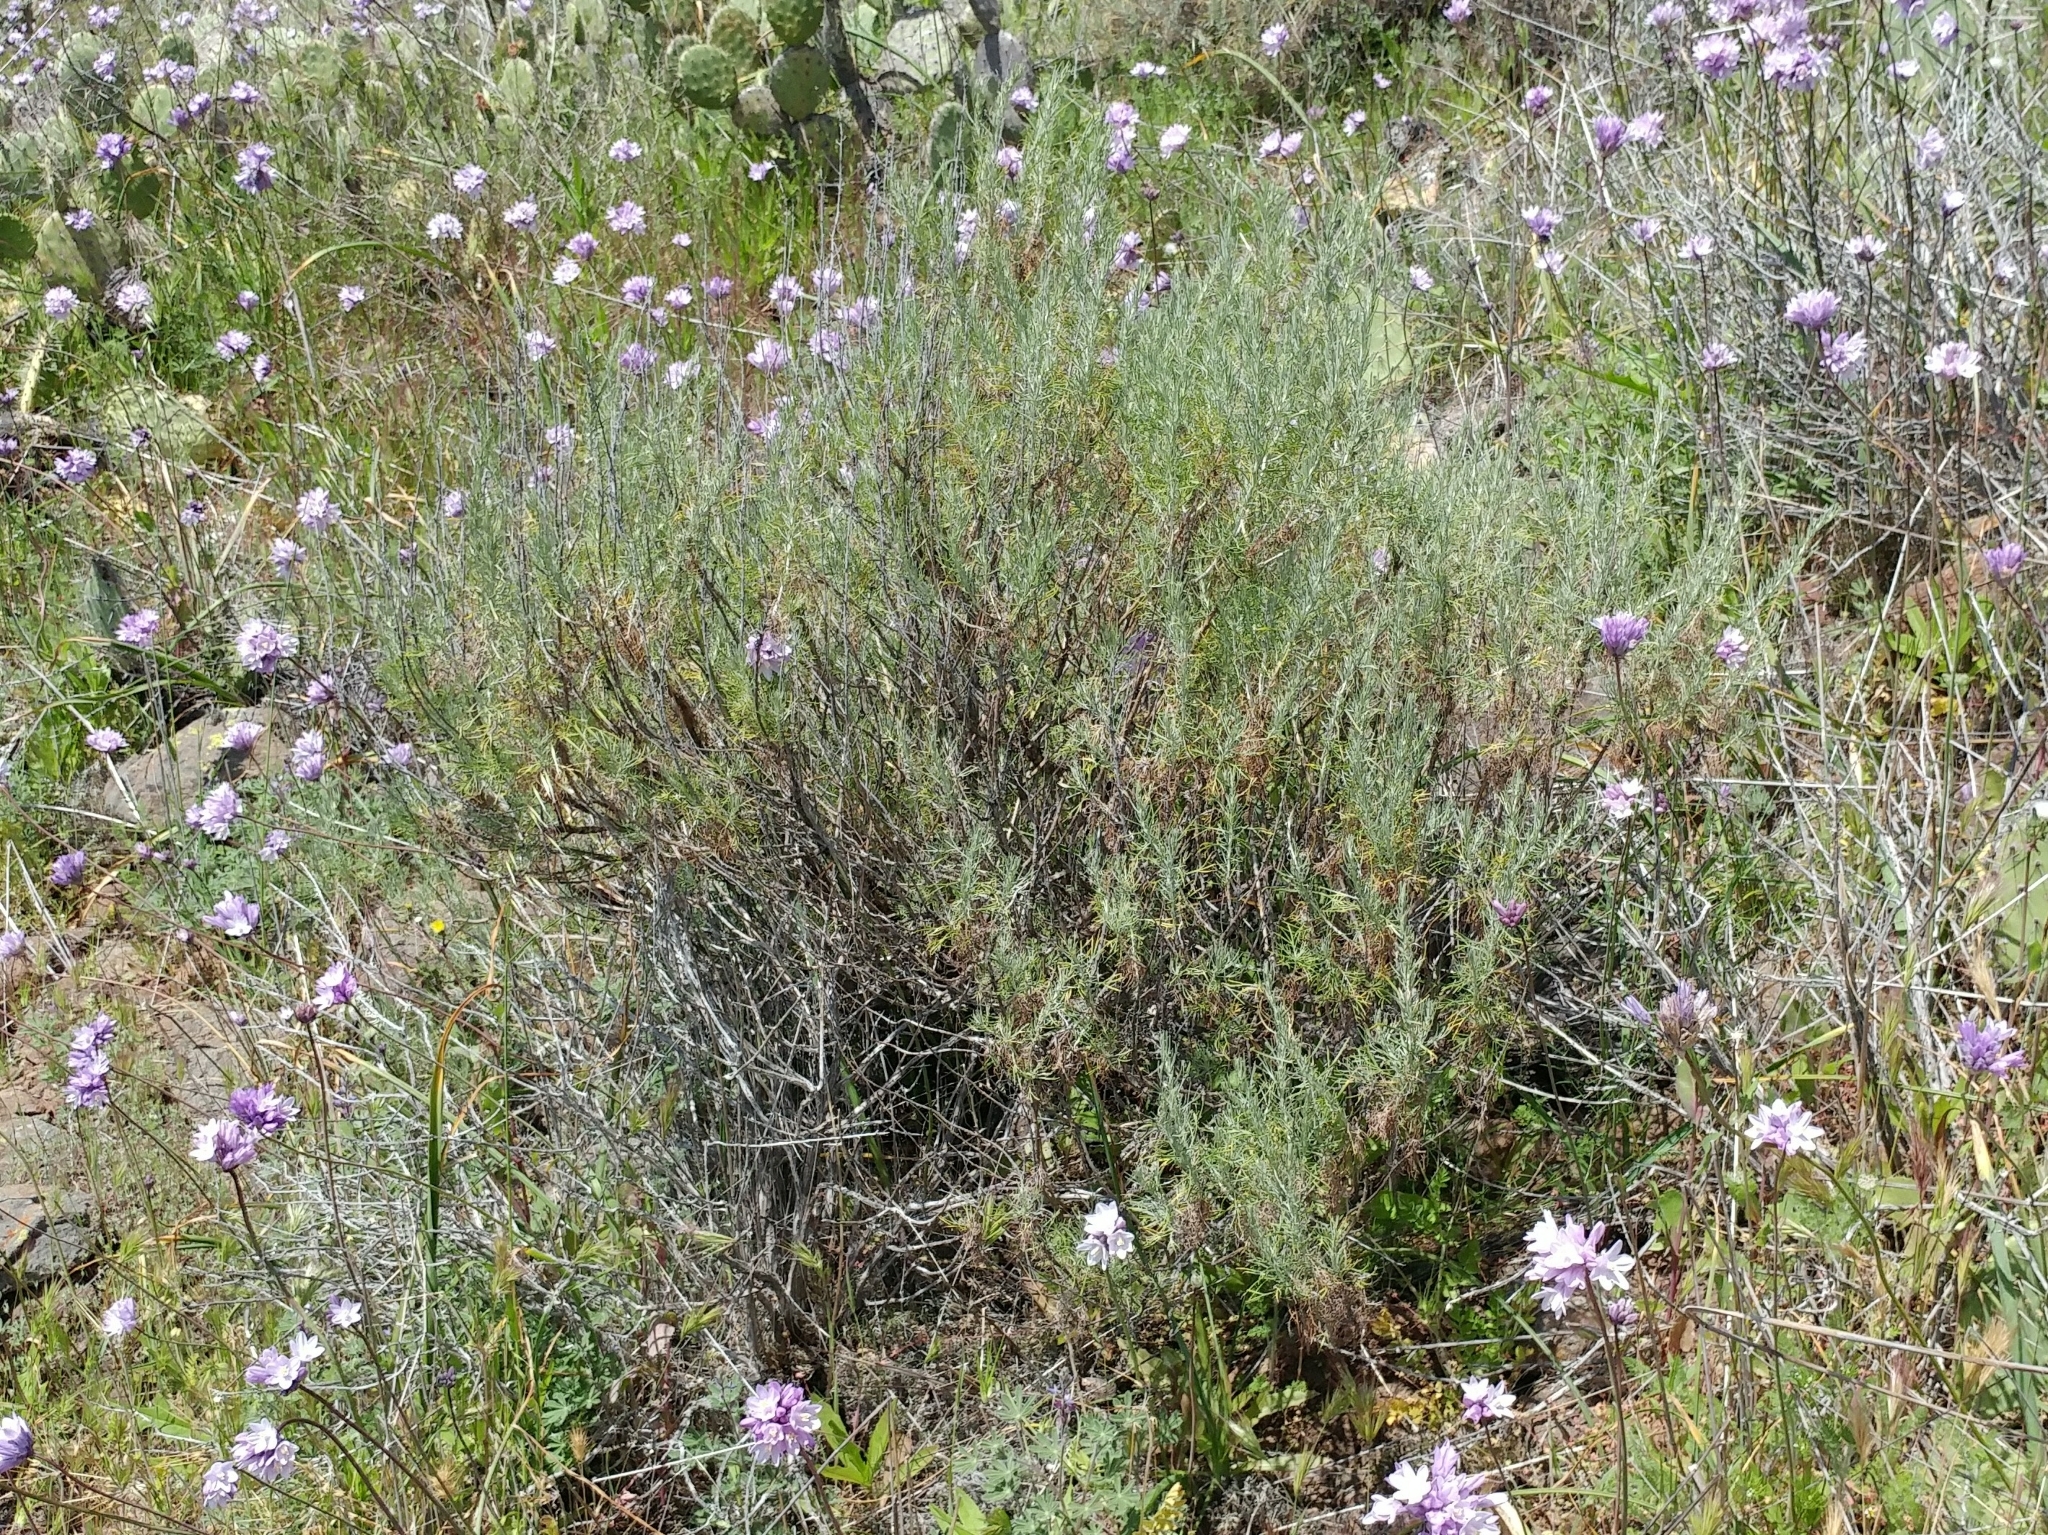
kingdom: Plantae
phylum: Tracheophyta
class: Magnoliopsida
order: Asterales
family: Asteraceae
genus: Artemisia
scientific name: Artemisia californica
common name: California sagebrush
